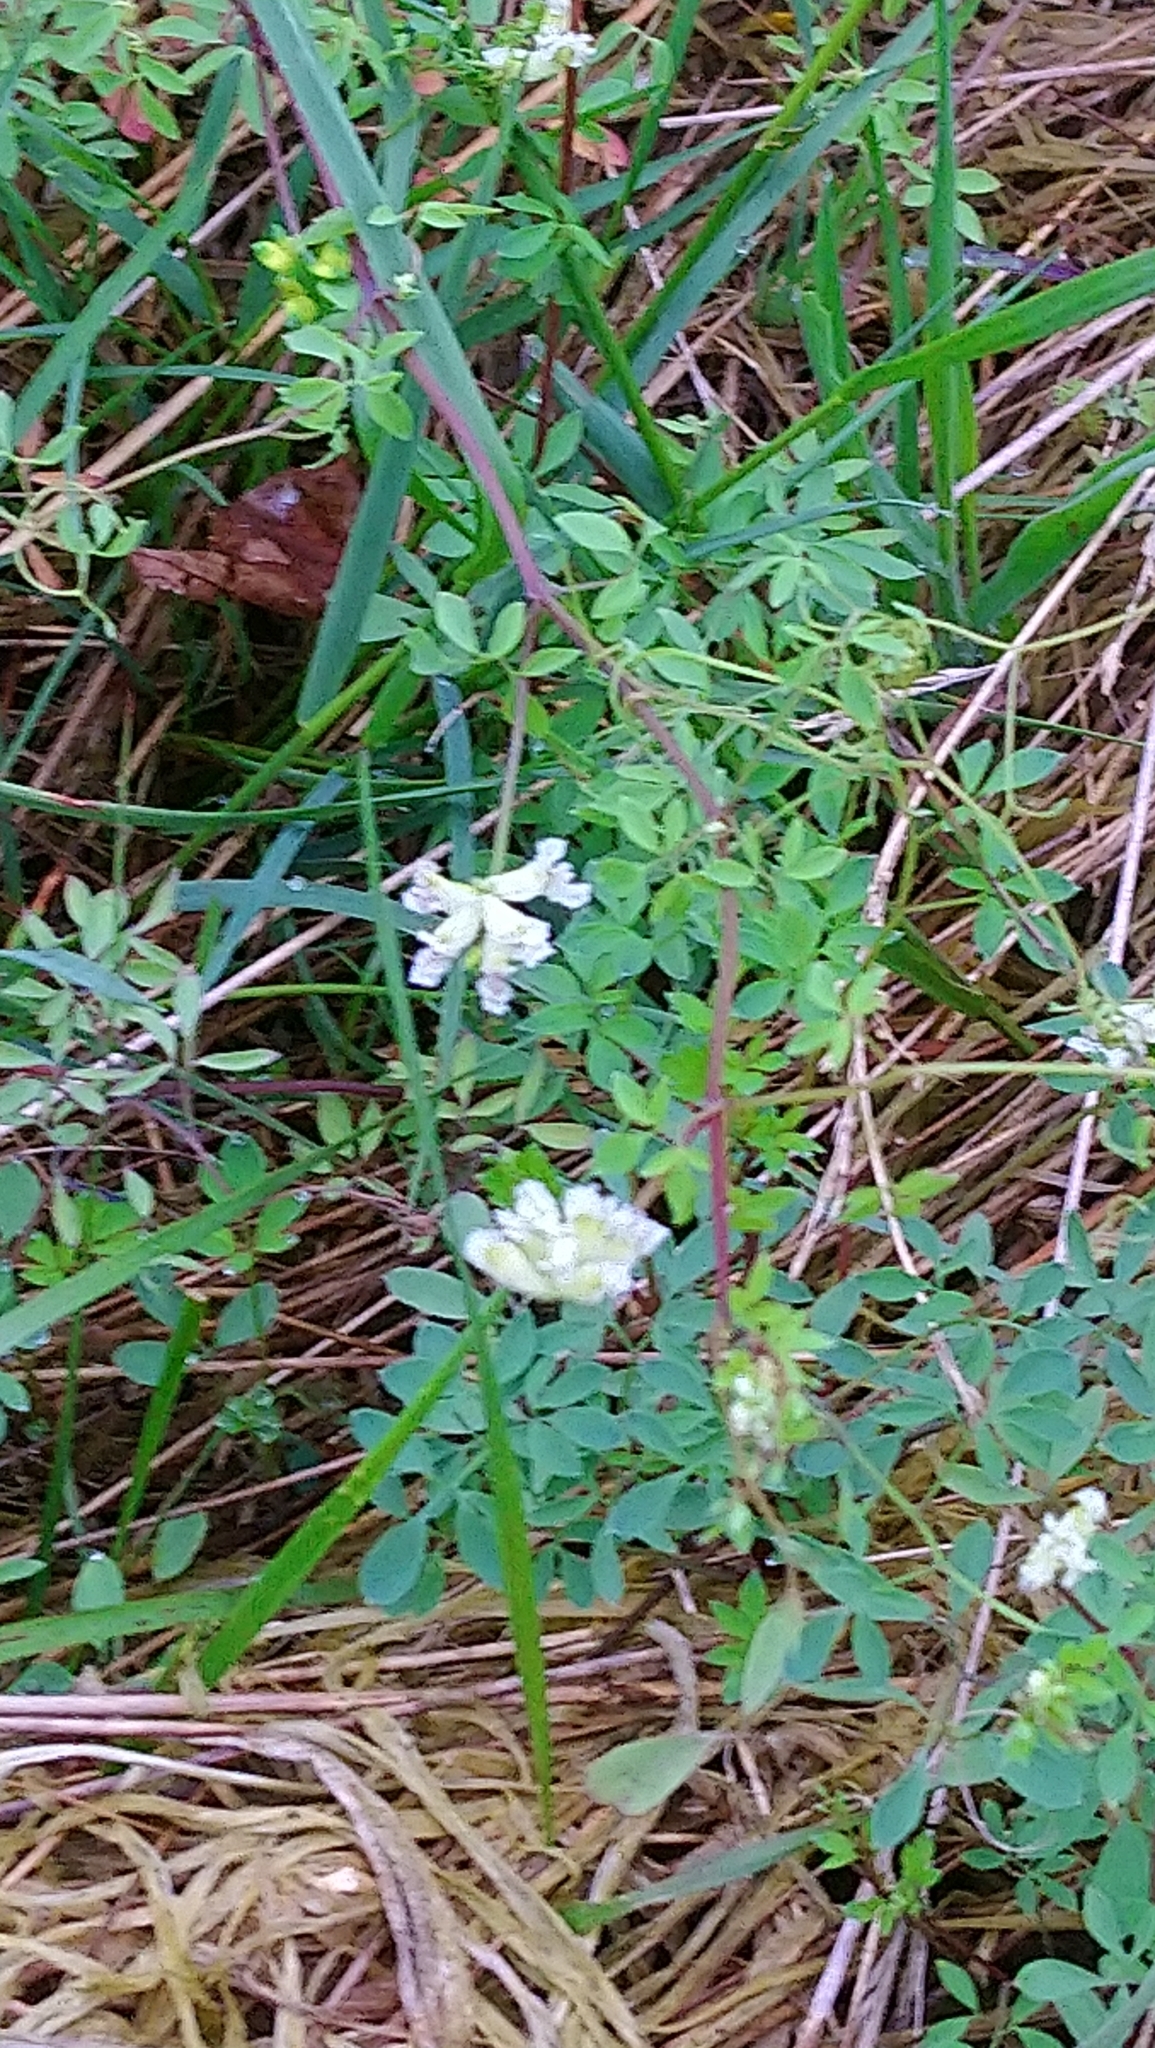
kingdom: Plantae
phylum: Tracheophyta
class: Magnoliopsida
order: Ranunculales
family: Papaveraceae
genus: Ceratocapnos
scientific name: Ceratocapnos claviculata
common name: Climbing corydalis
